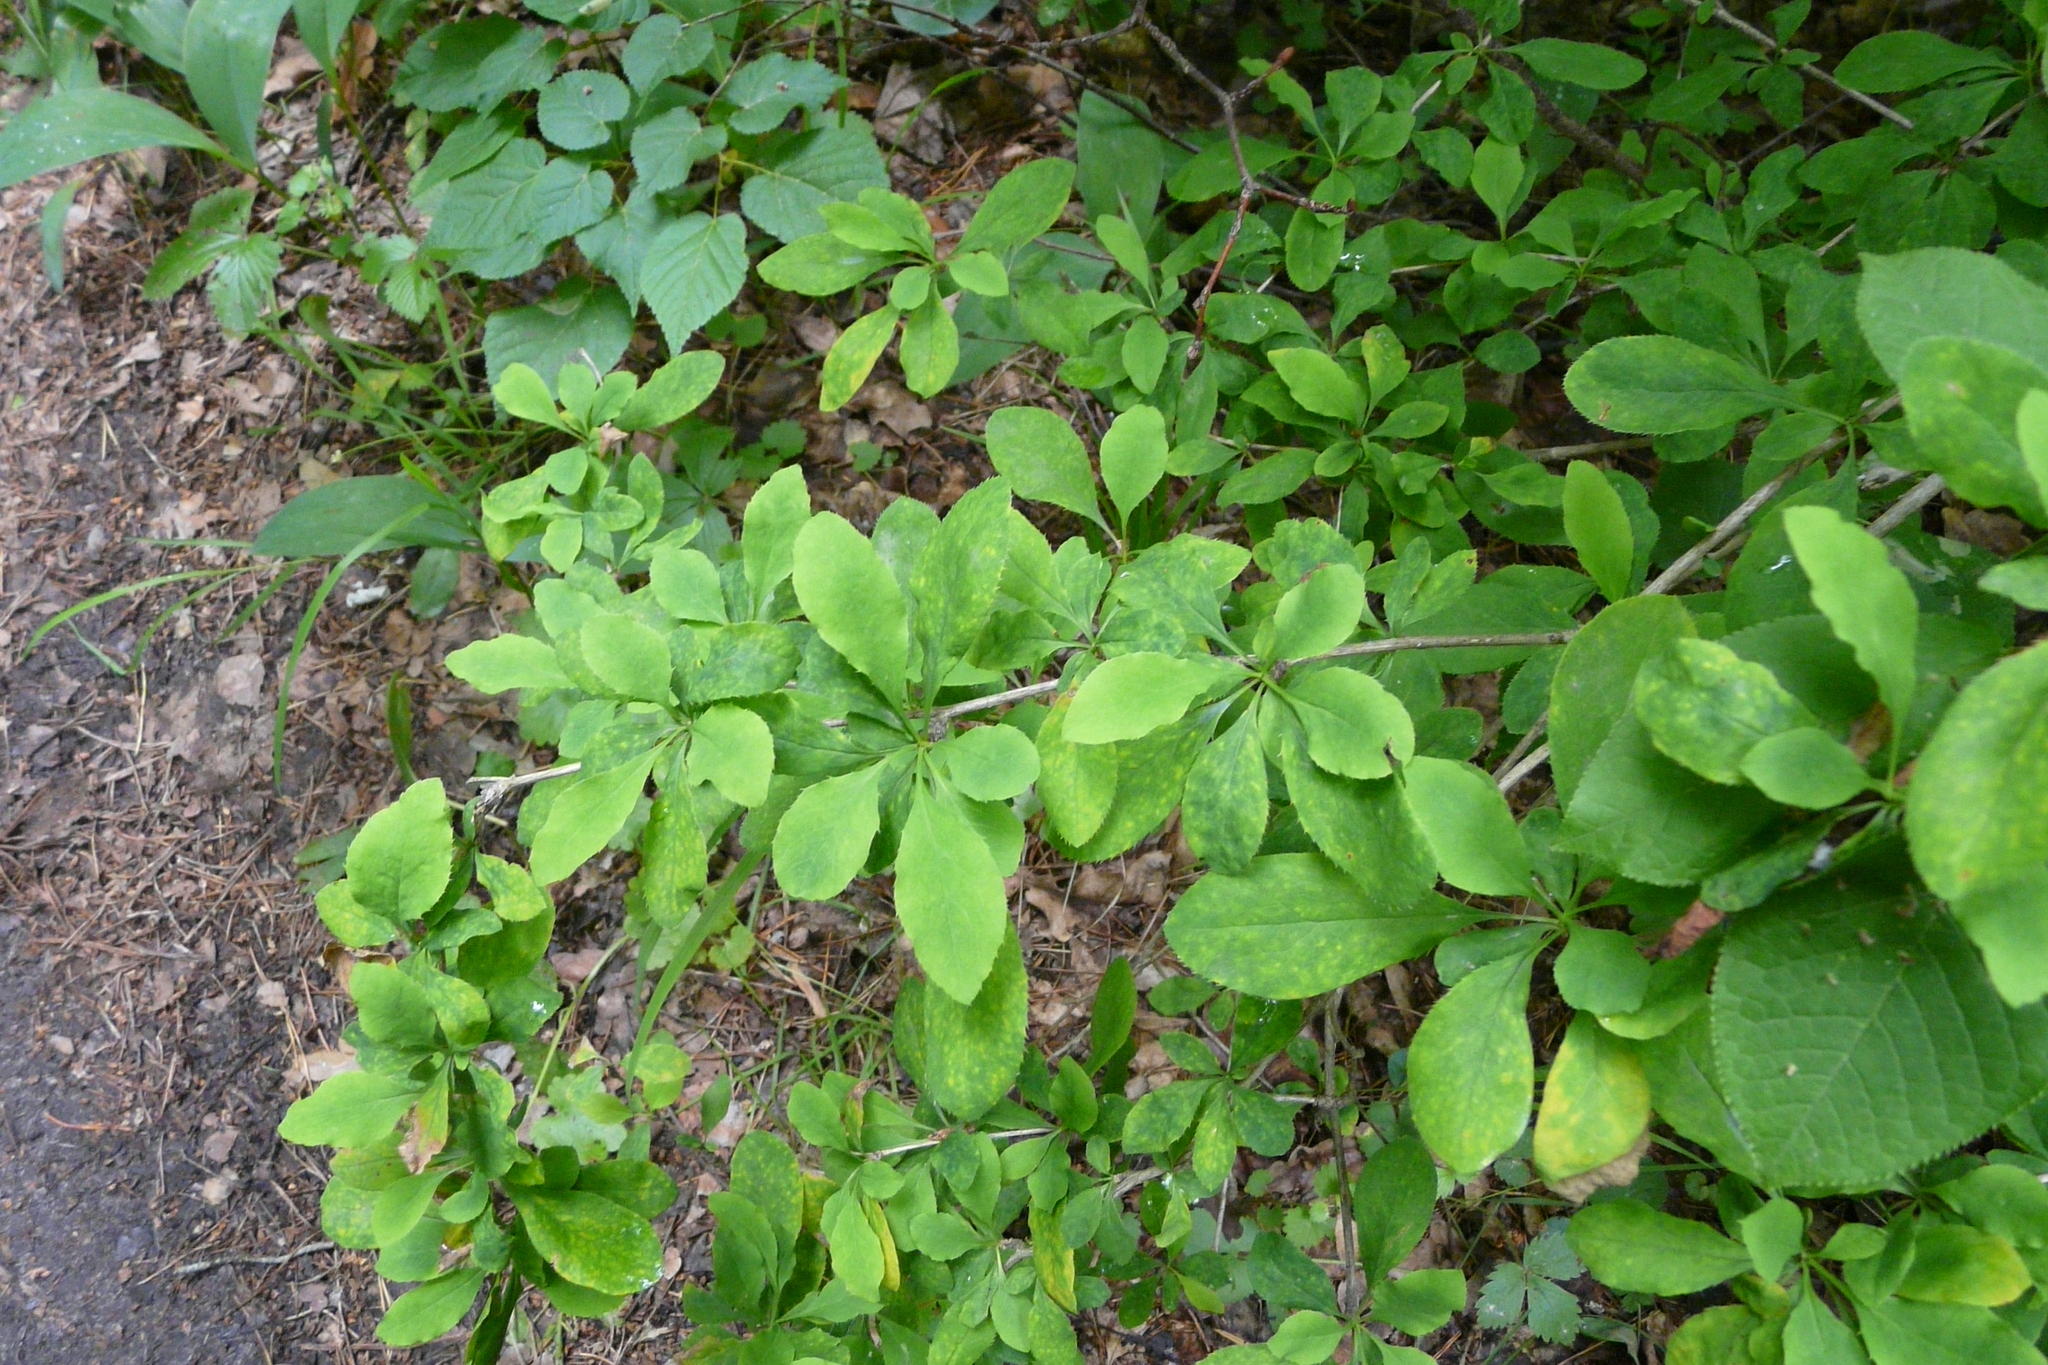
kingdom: Plantae
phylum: Tracheophyta
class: Magnoliopsida
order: Ranunculales
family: Berberidaceae
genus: Berberis
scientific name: Berberis vulgaris
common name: Barberry
